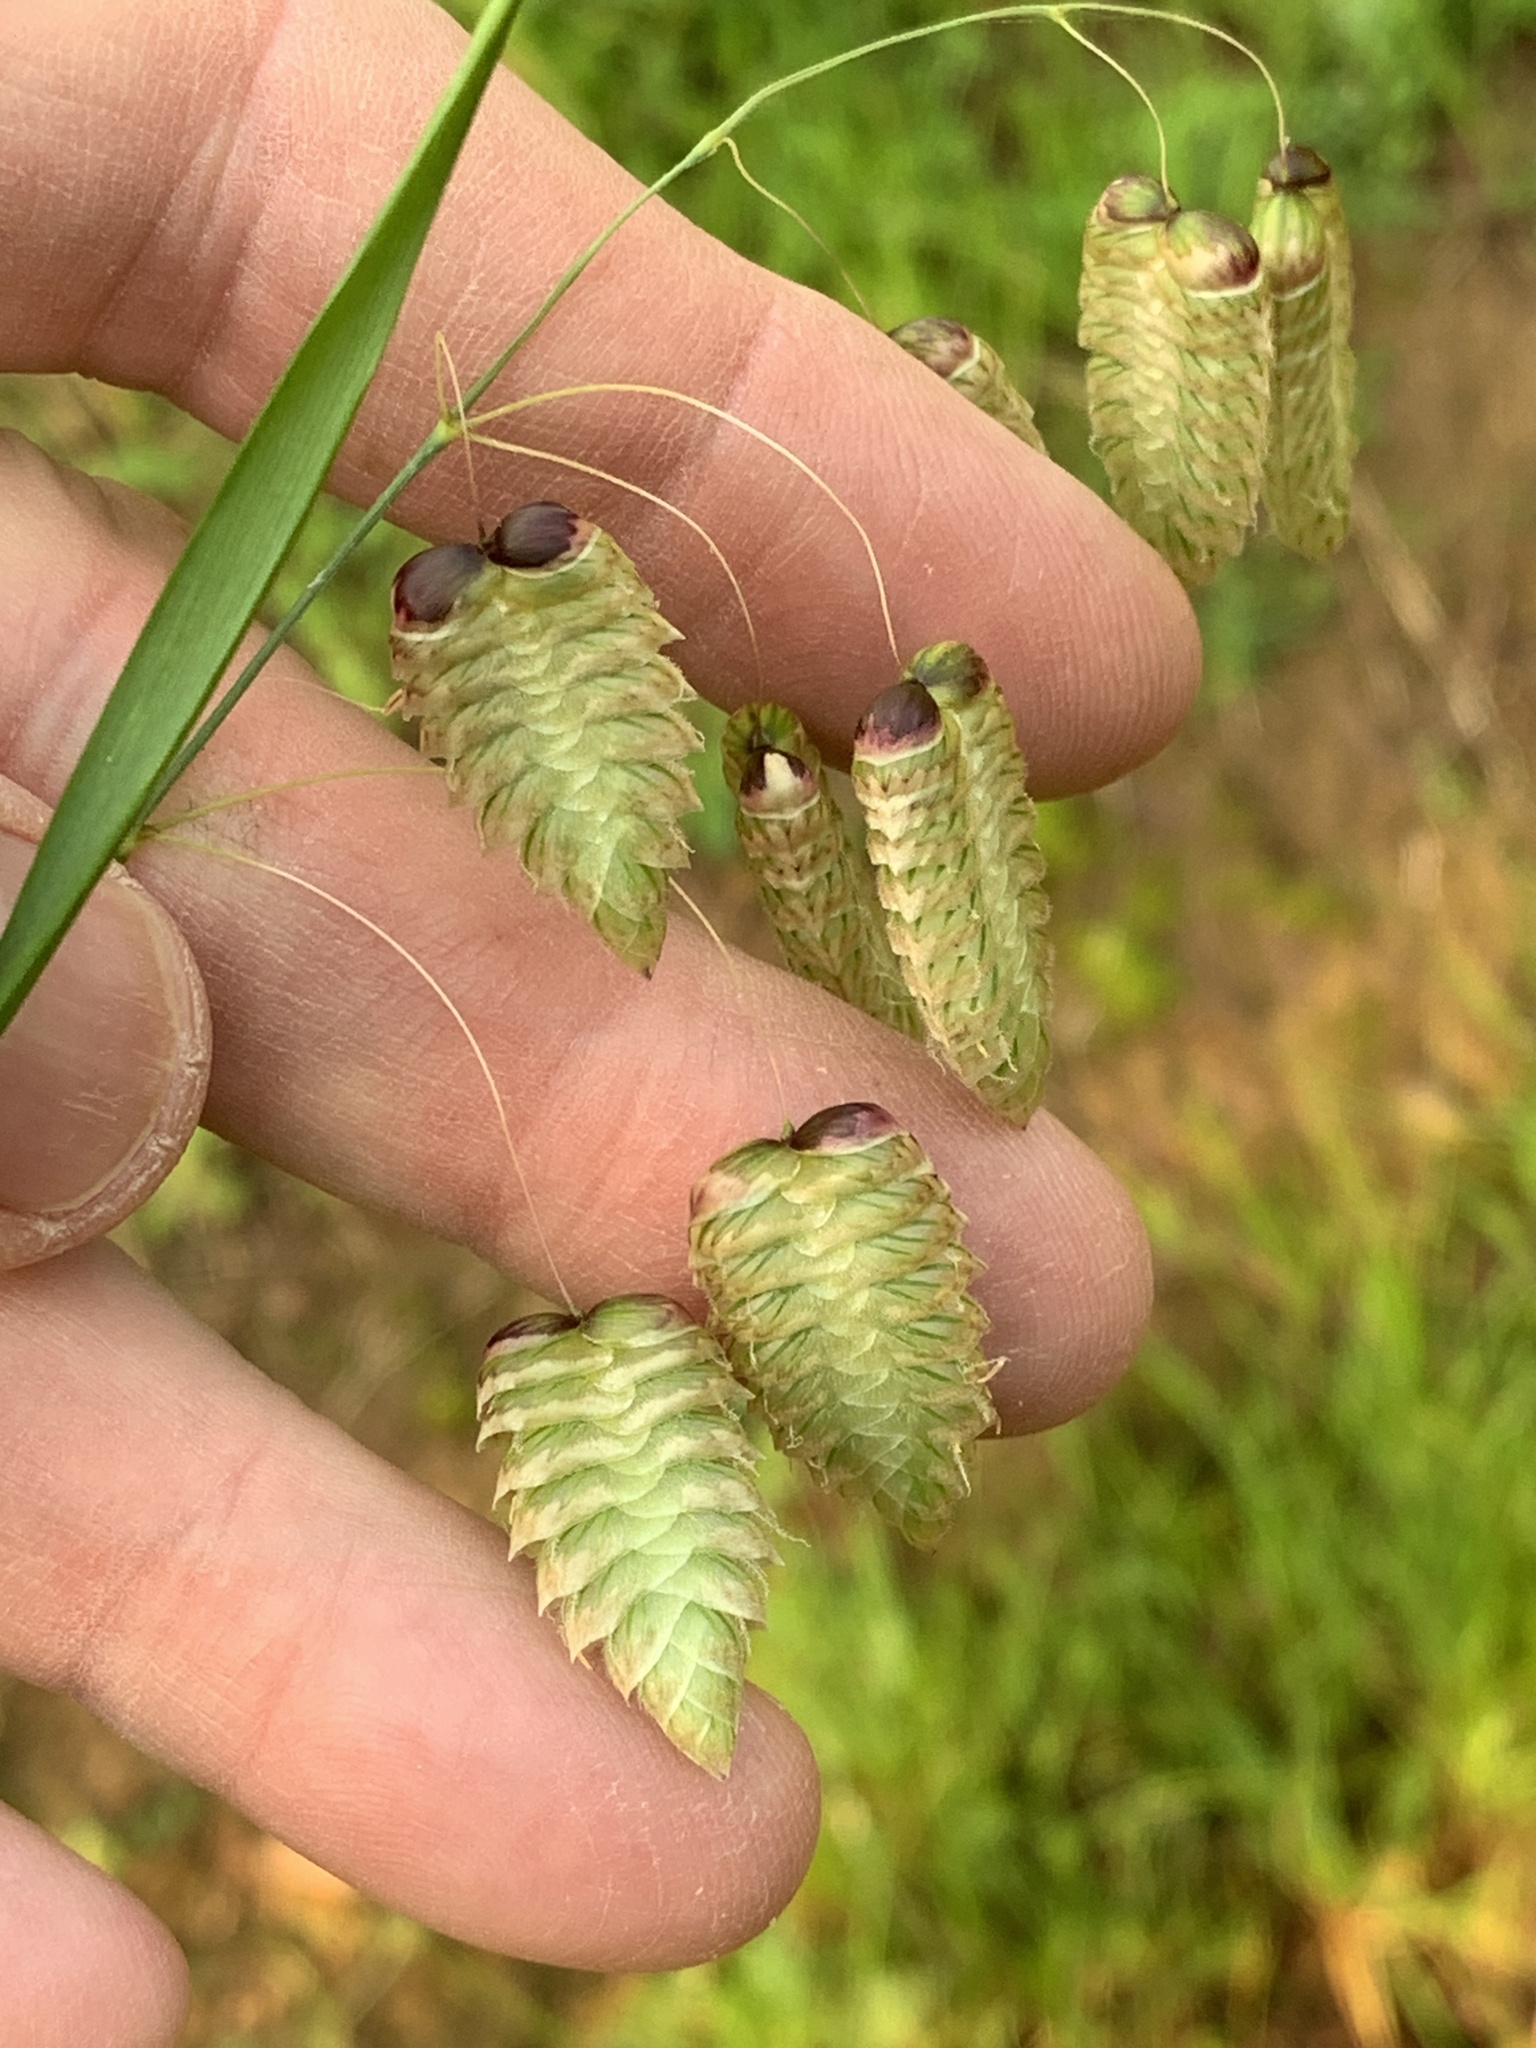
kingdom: Plantae
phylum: Tracheophyta
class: Liliopsida
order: Poales
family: Poaceae
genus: Briza
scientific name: Briza maxima
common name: Big quakinggrass
